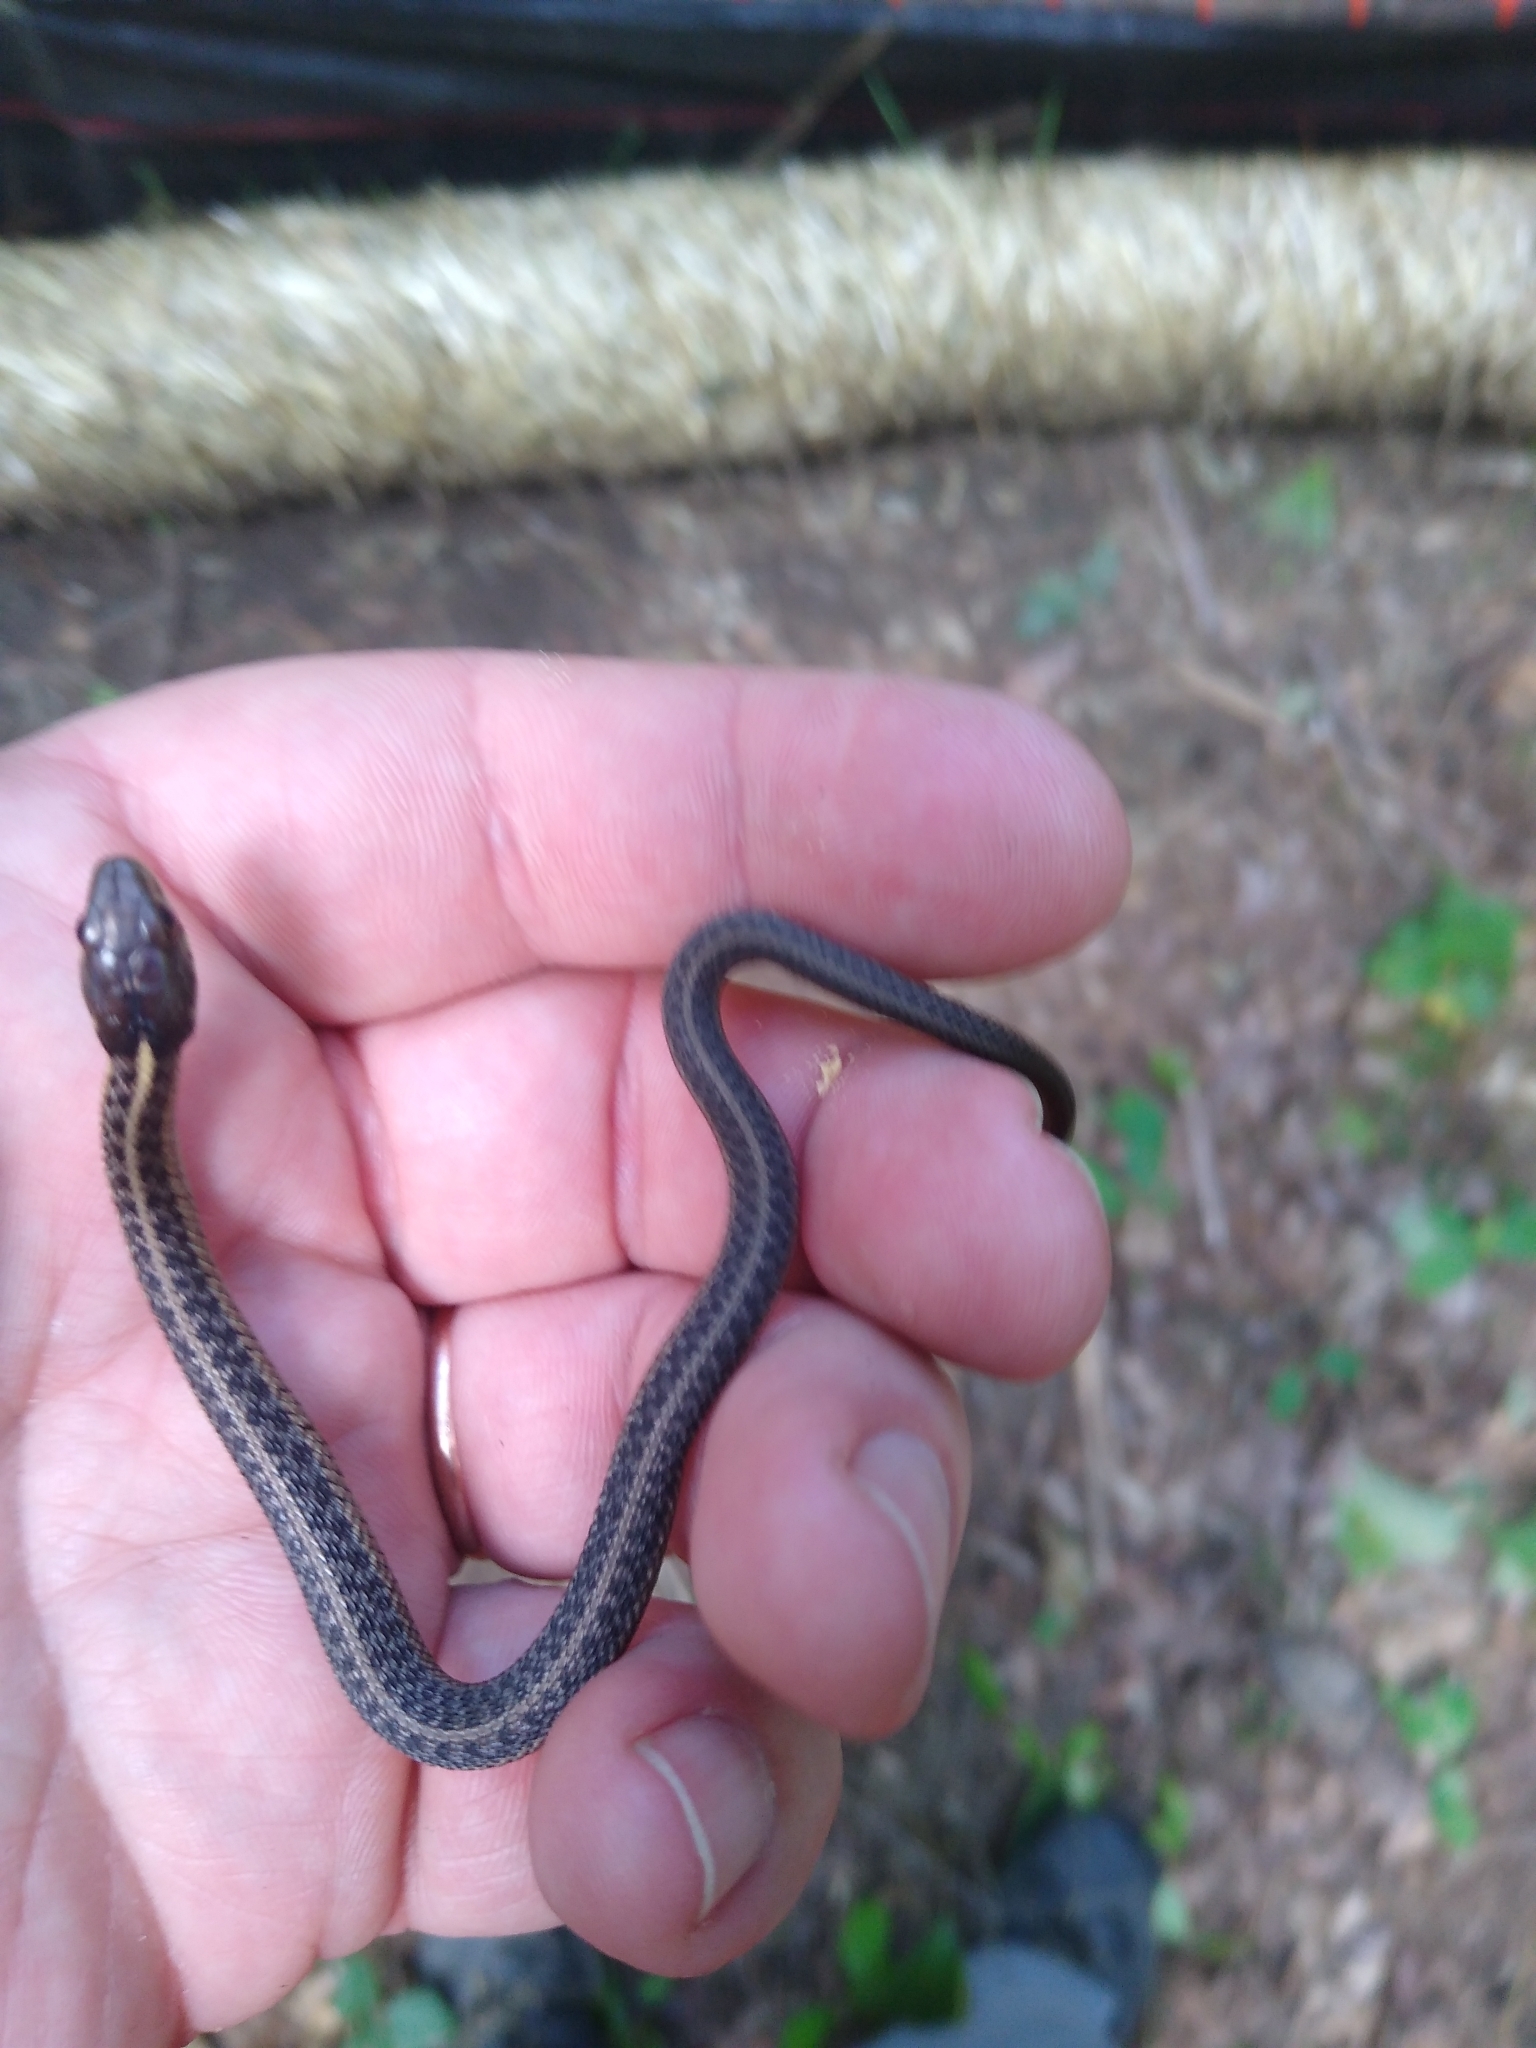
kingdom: Animalia
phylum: Chordata
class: Squamata
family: Colubridae
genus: Thamnophis
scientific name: Thamnophis sirtalis
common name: Common garter snake
